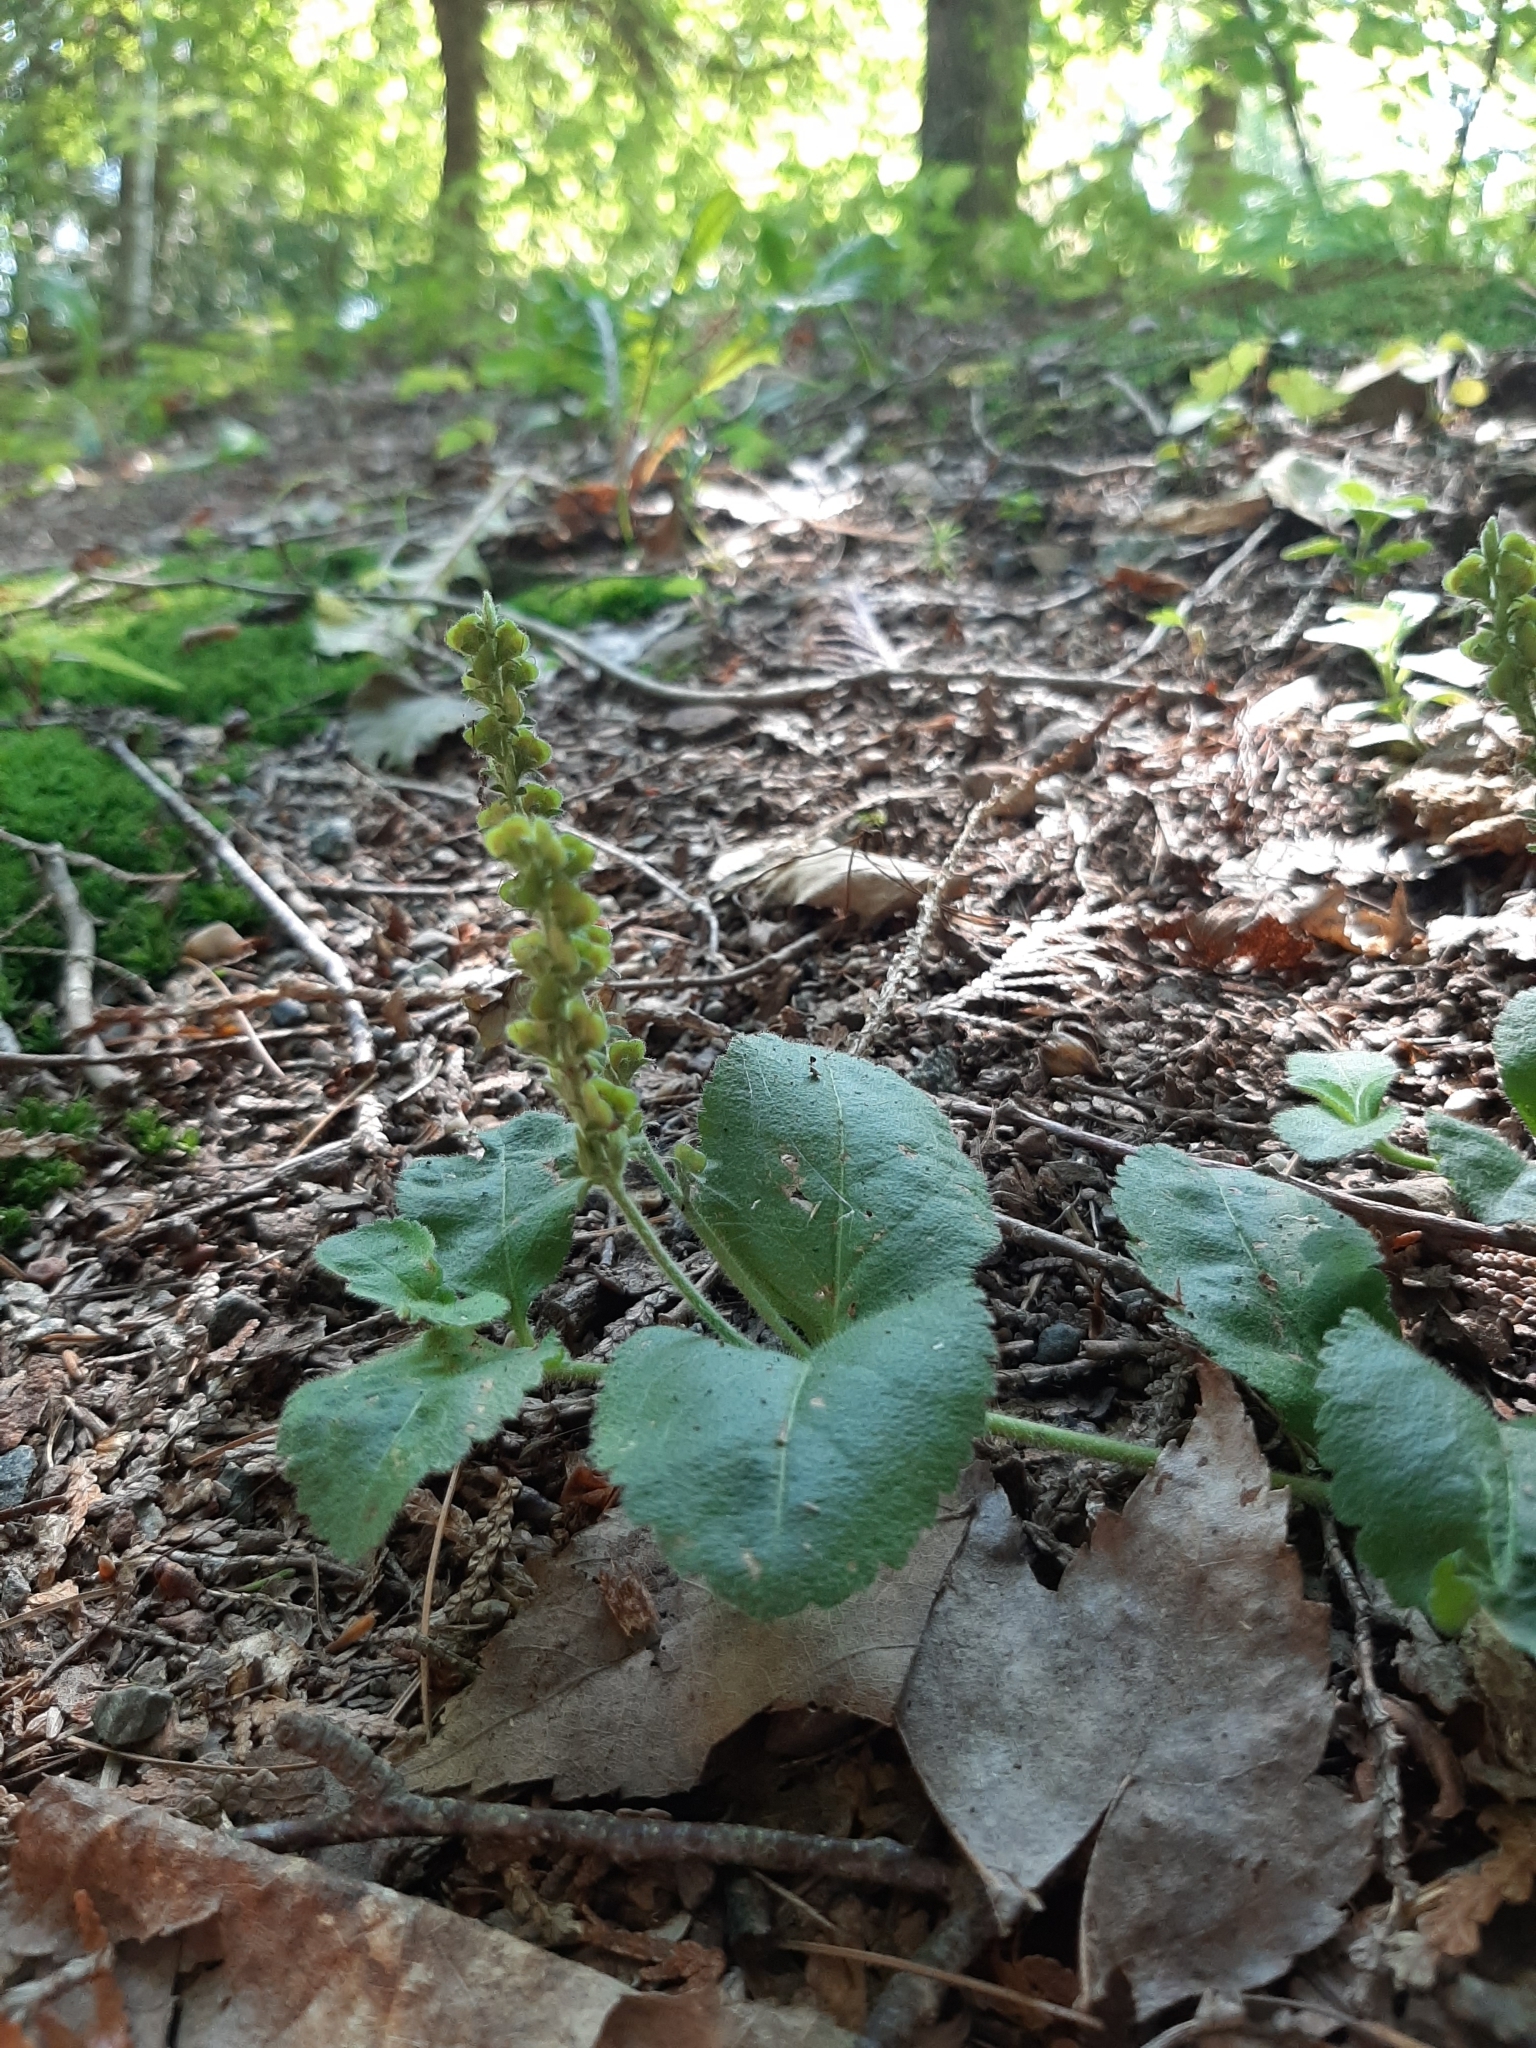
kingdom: Plantae
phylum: Tracheophyta
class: Magnoliopsida
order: Lamiales
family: Plantaginaceae
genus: Veronica
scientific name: Veronica officinalis
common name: Common speedwell
